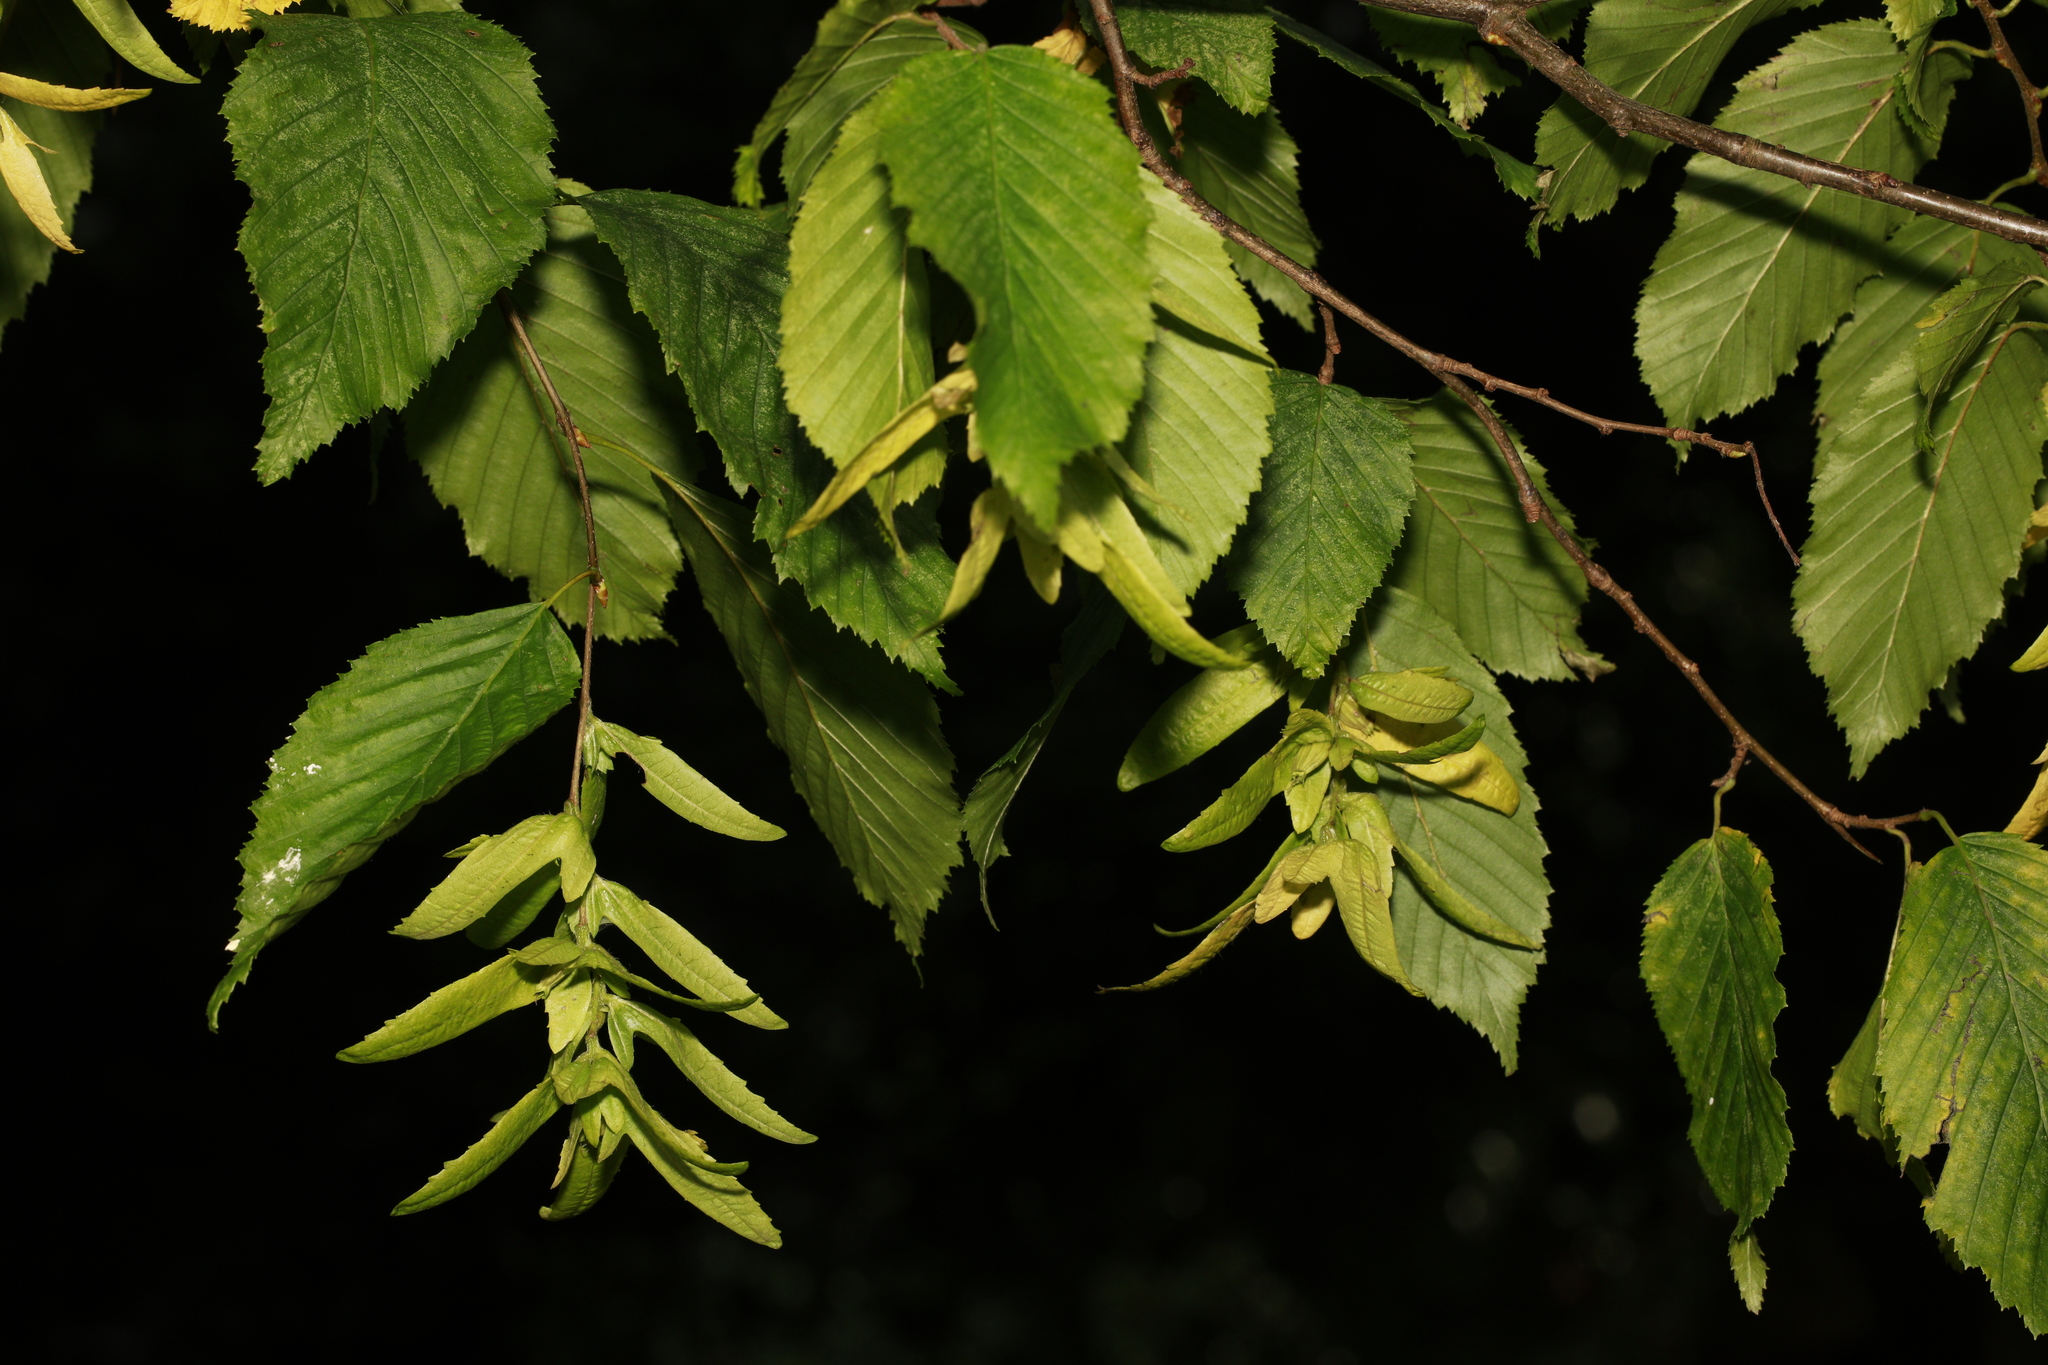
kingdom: Plantae
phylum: Tracheophyta
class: Magnoliopsida
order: Fagales
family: Betulaceae
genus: Carpinus
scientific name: Carpinus betulus
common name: Hornbeam
